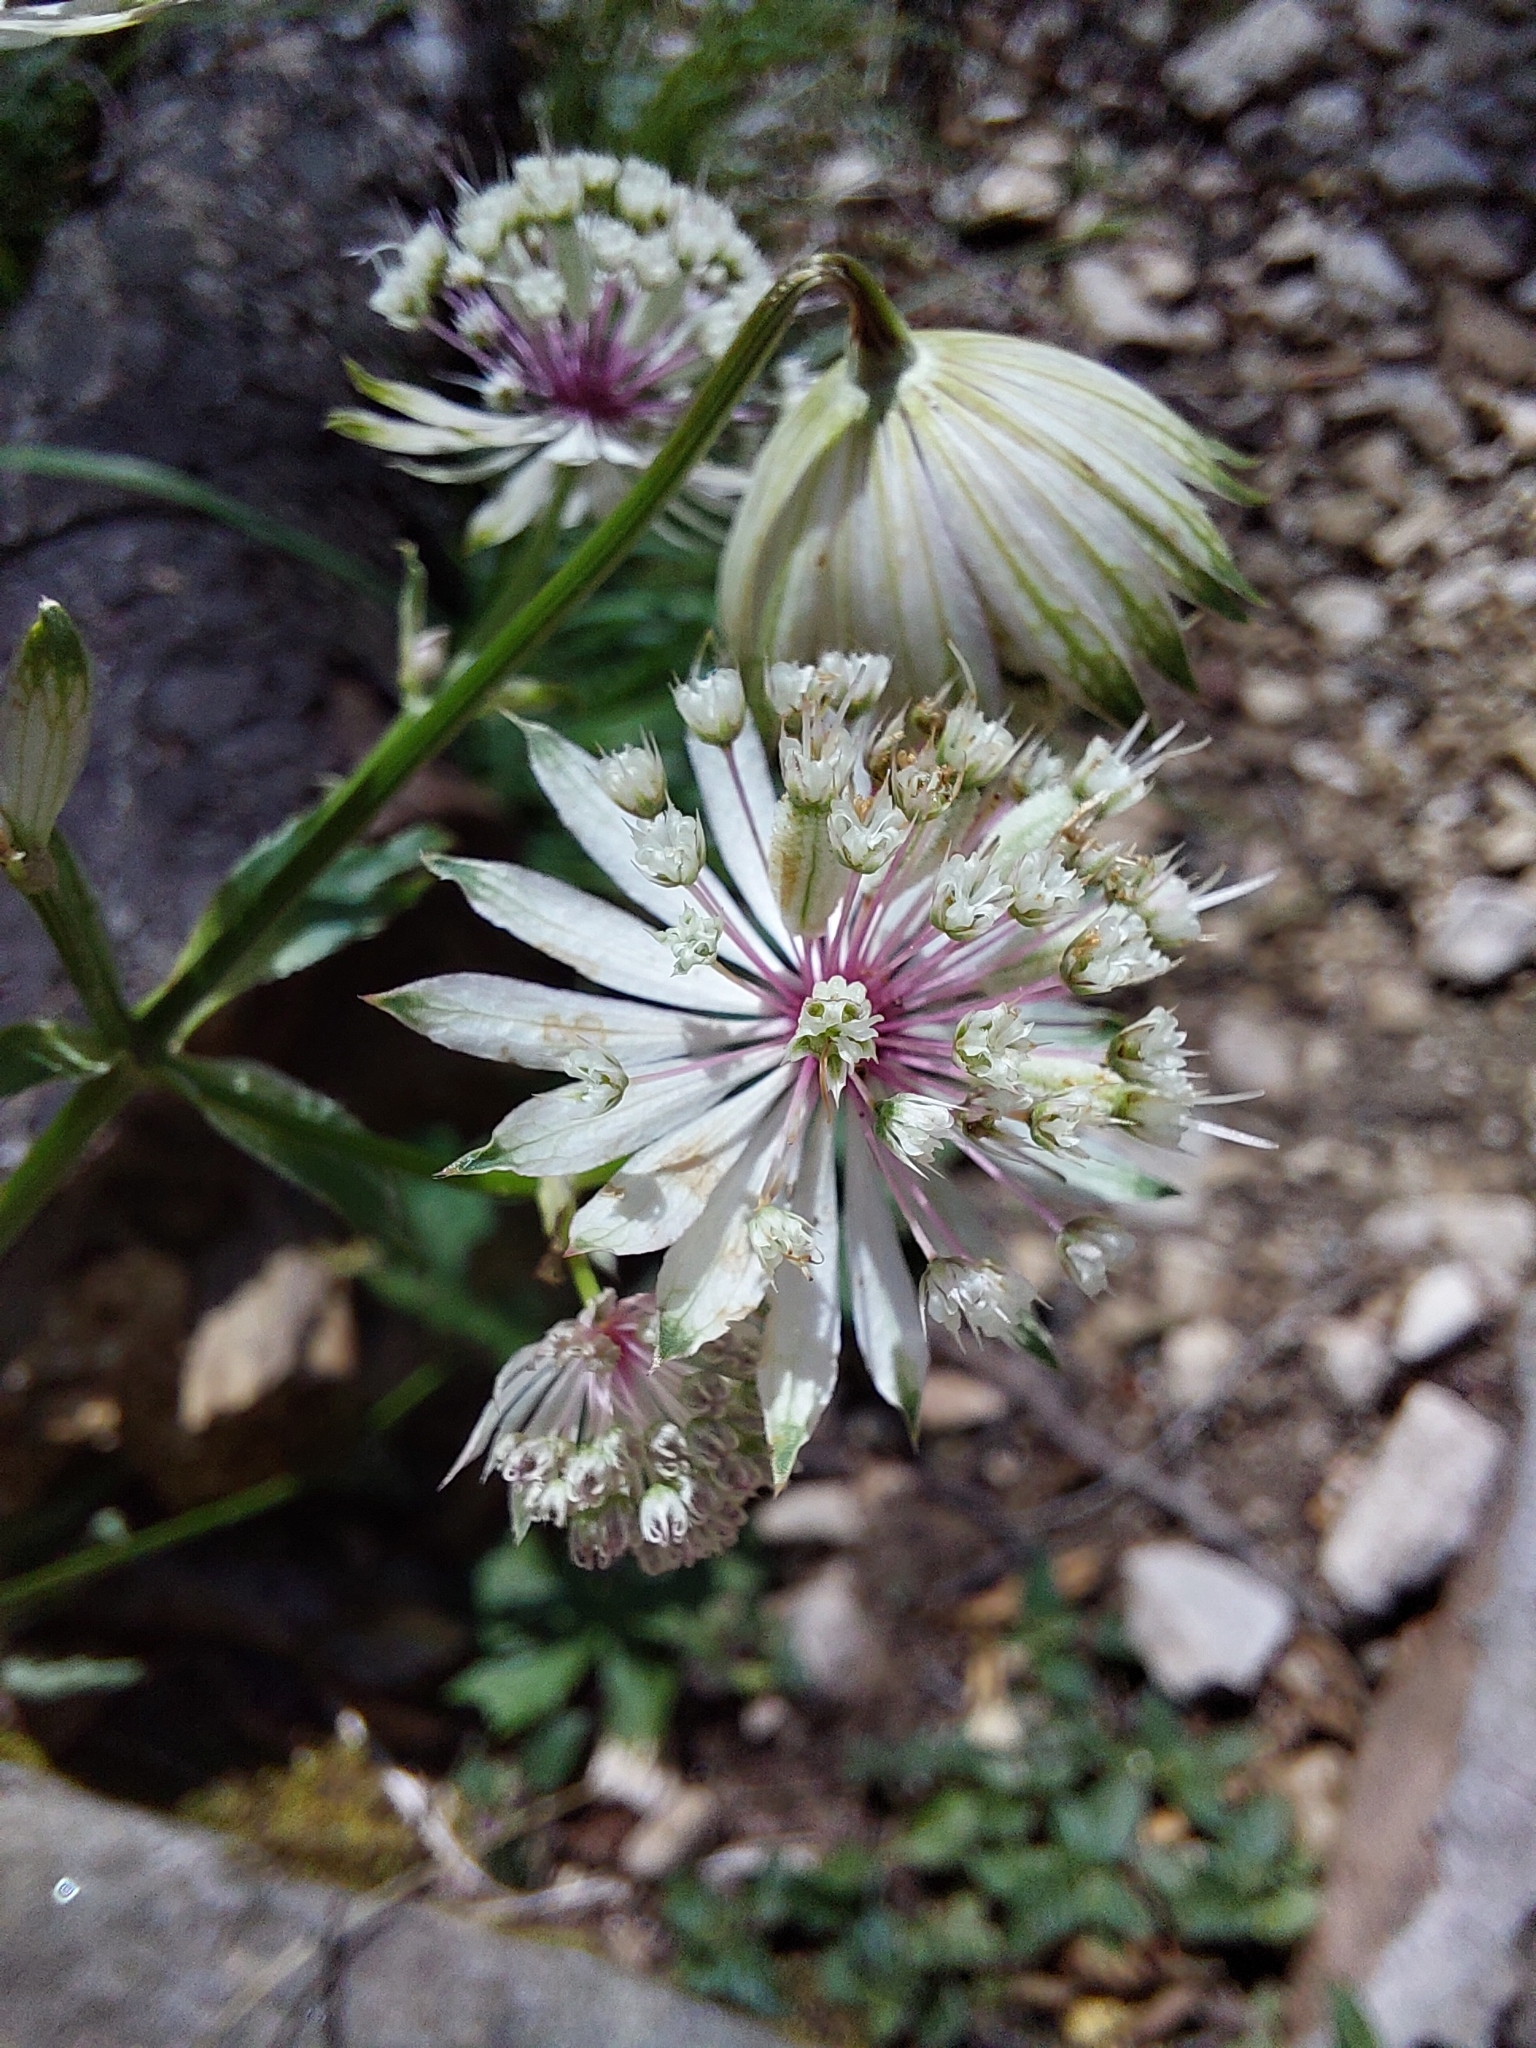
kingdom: Plantae
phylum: Tracheophyta
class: Magnoliopsida
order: Apiales
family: Apiaceae
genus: Astrantia
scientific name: Astrantia major
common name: Greater masterwort
